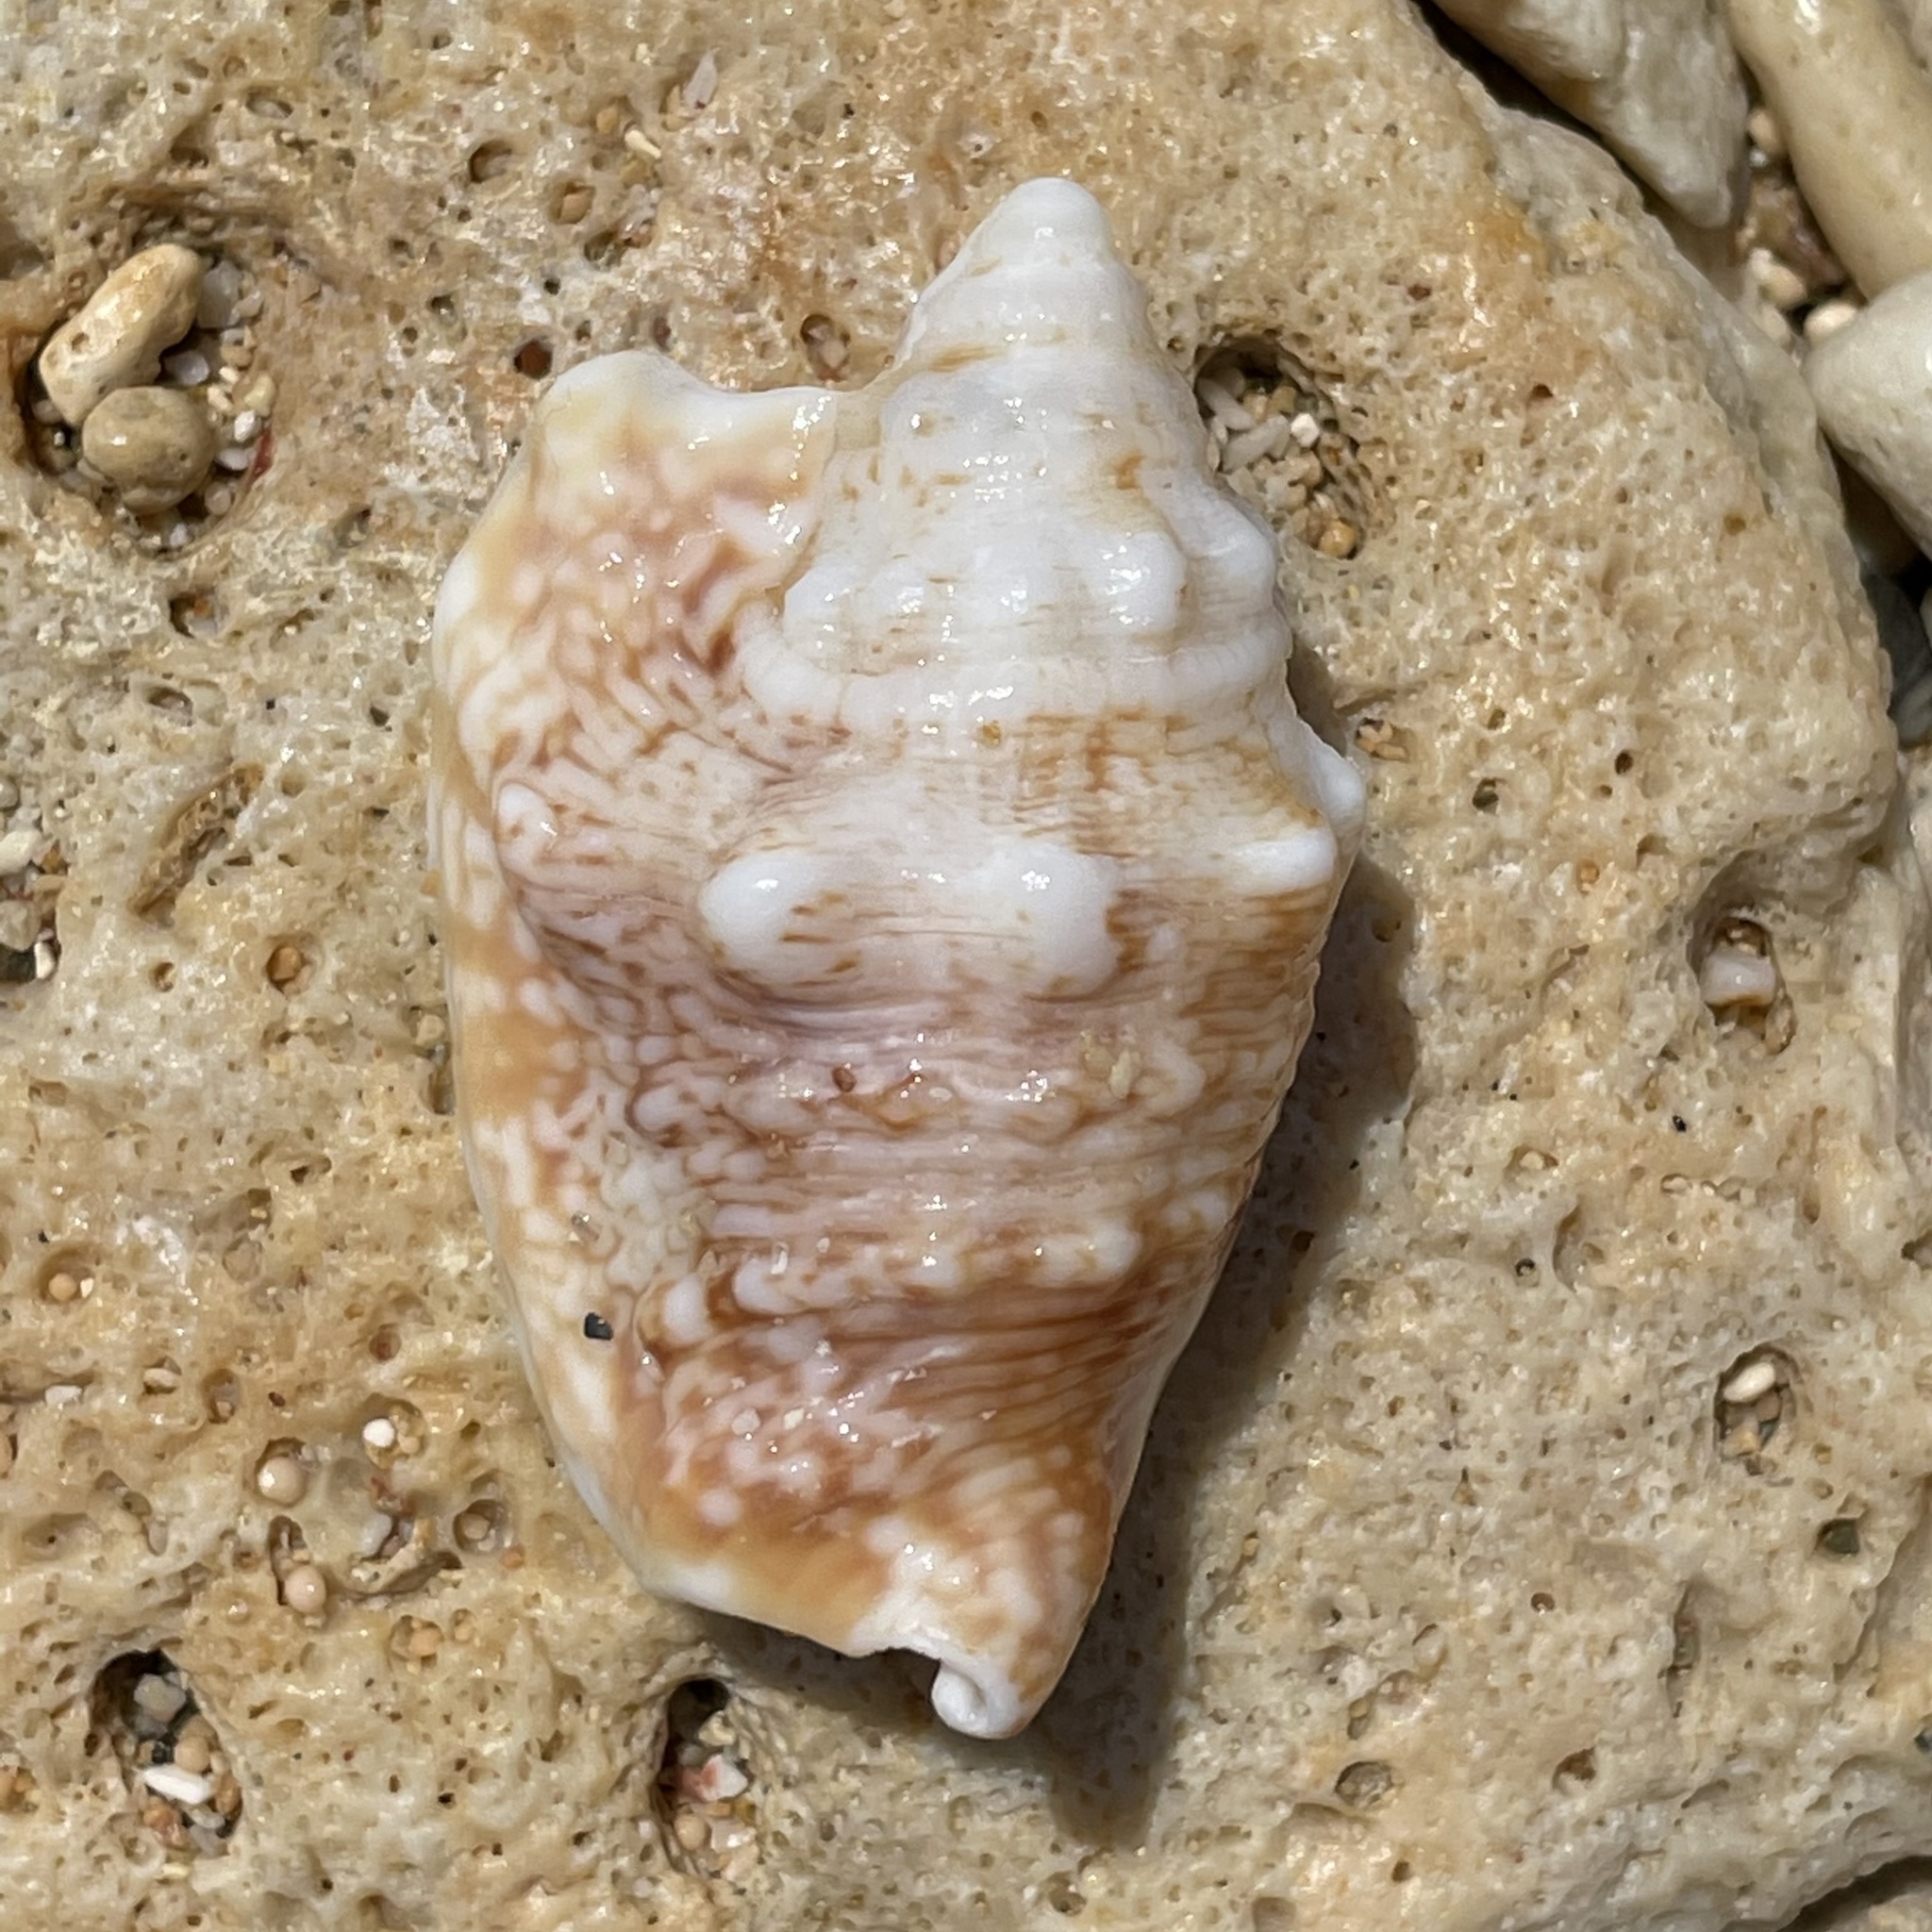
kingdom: Animalia
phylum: Mollusca
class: Gastropoda
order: Littorinimorpha
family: Strombidae
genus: Euprotomus
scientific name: Euprotomus aurisdianae
